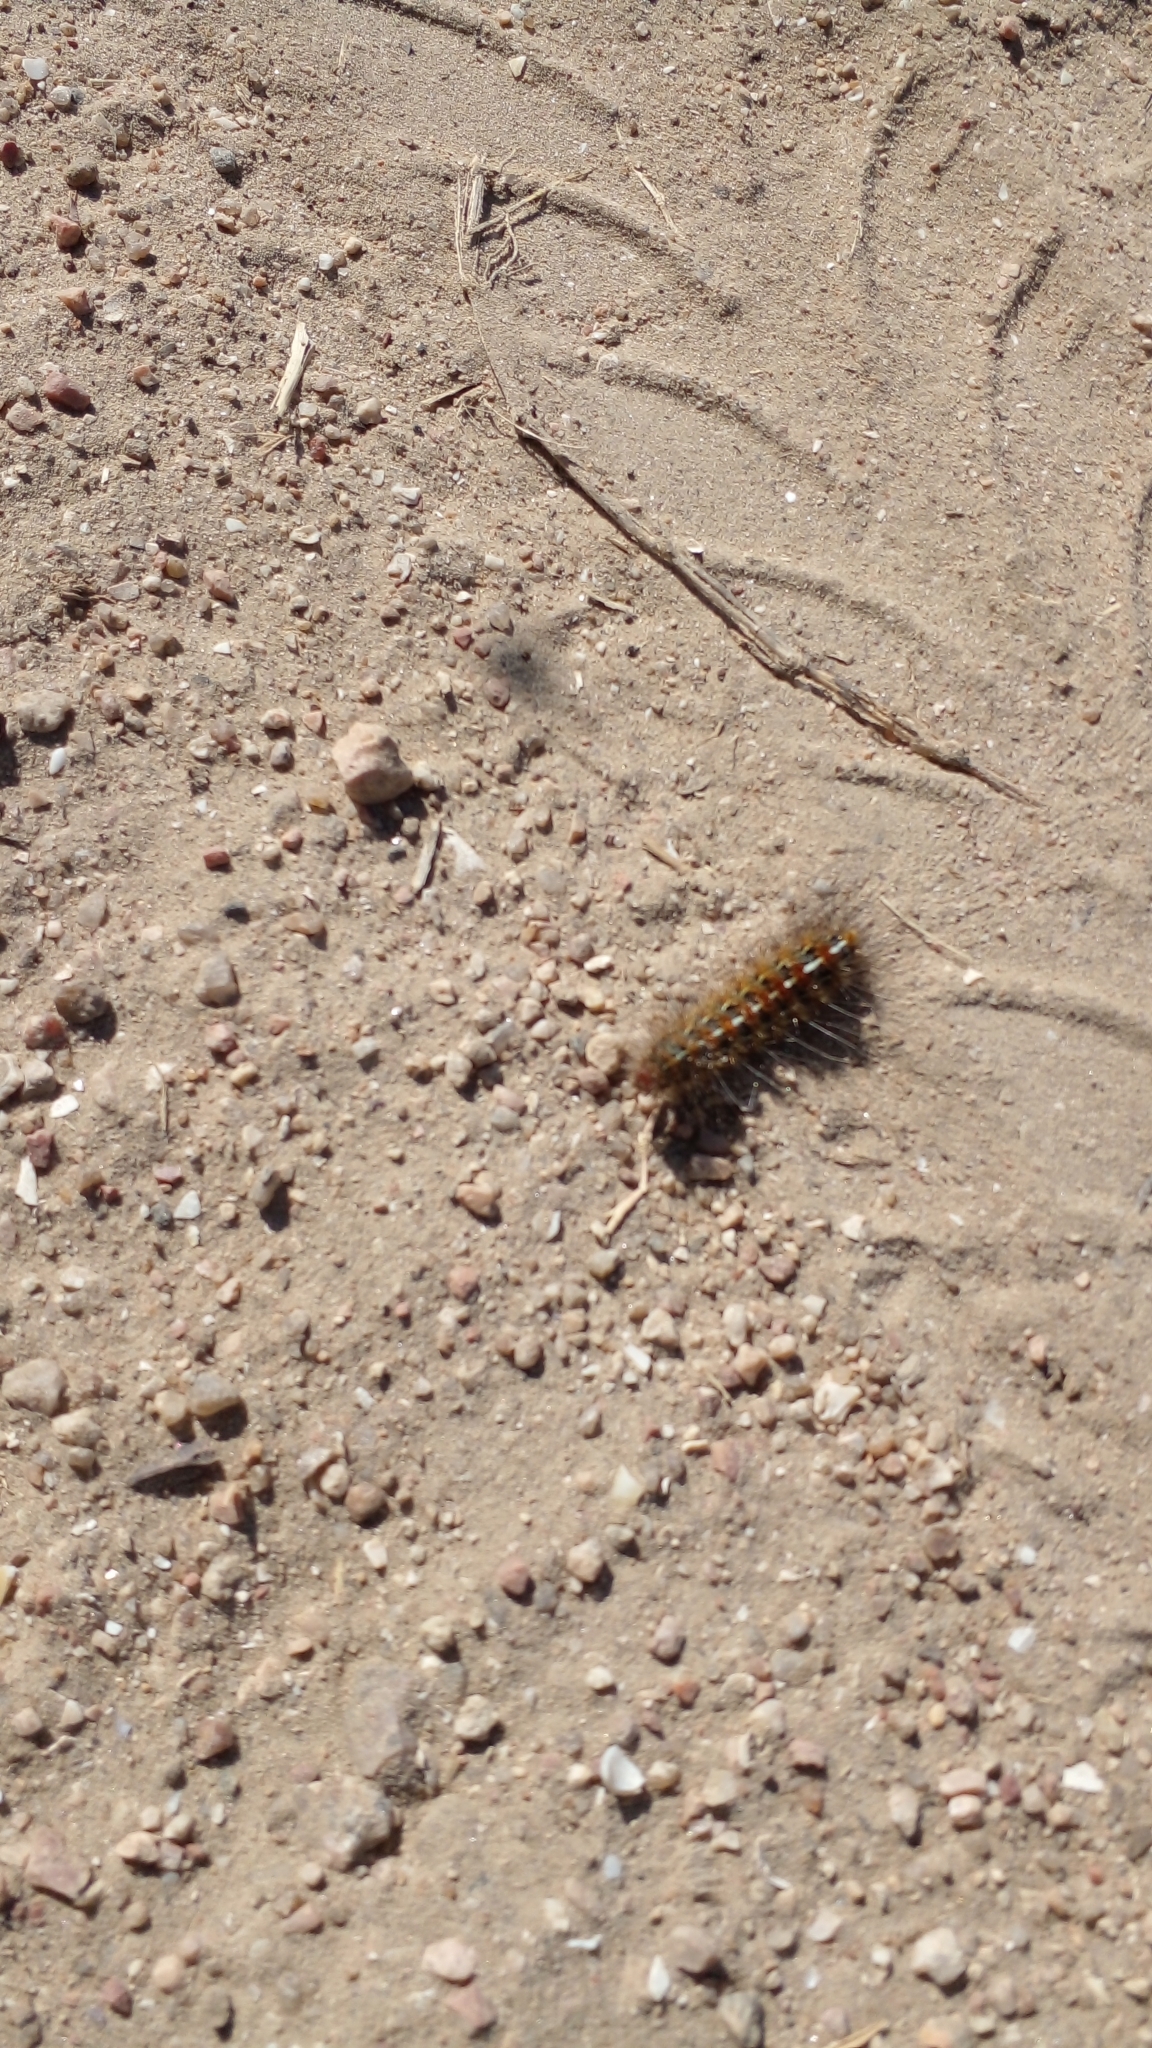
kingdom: Animalia
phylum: Arthropoda
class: Insecta
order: Lepidoptera
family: Erebidae
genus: Paracles
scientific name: Paracles deserticola
